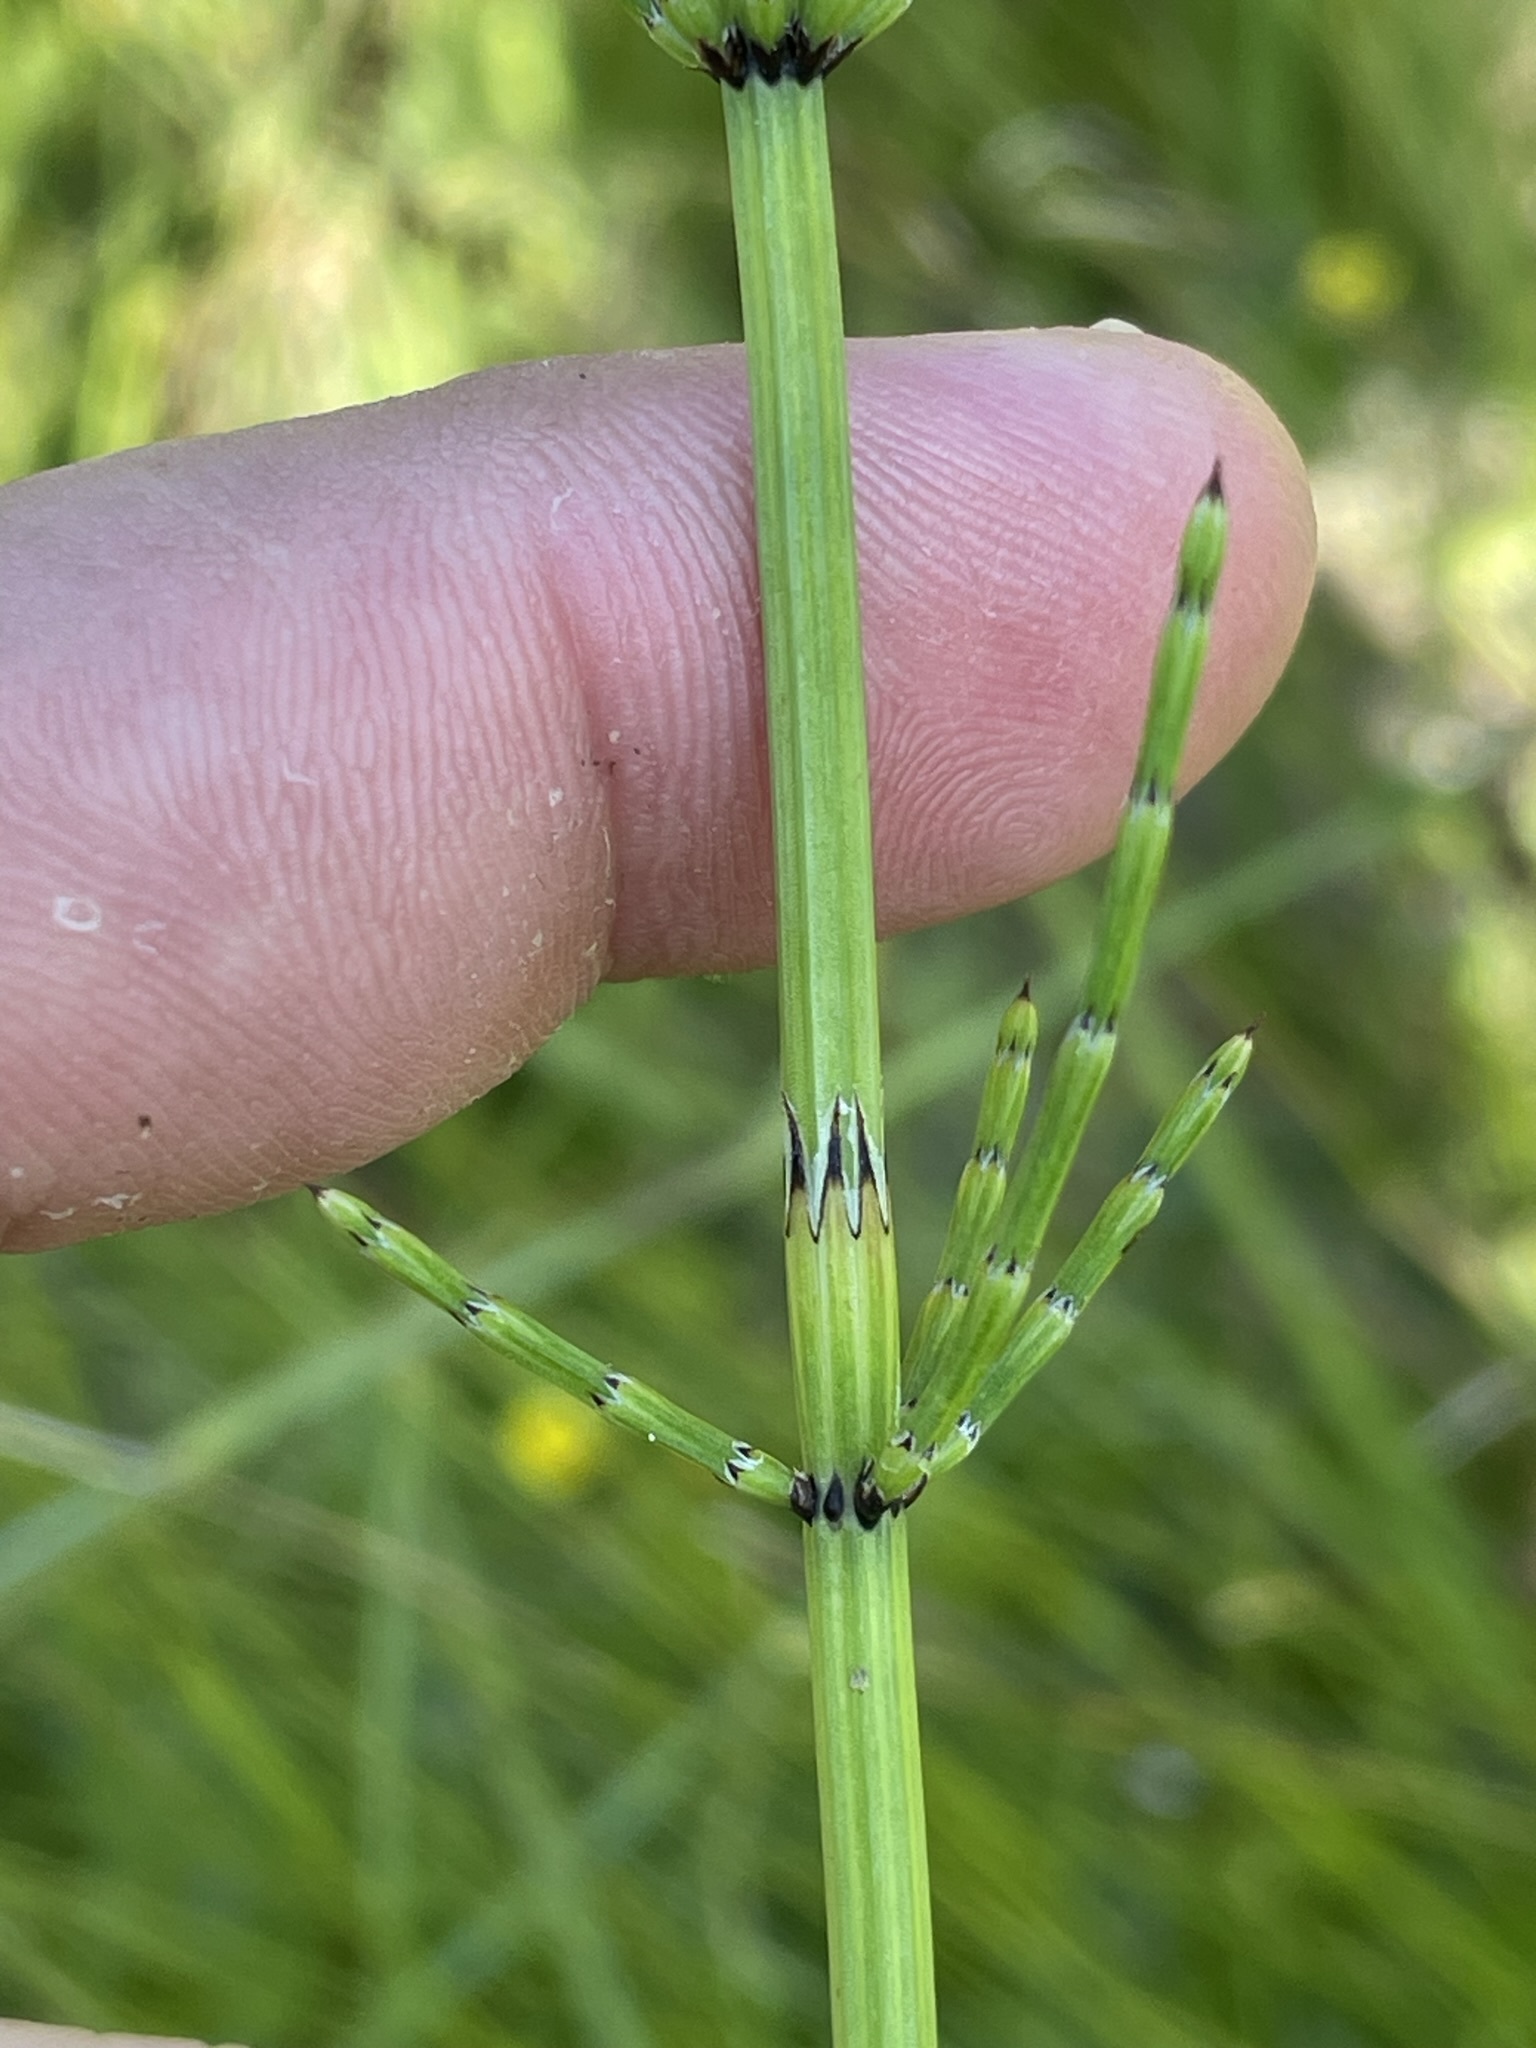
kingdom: Plantae
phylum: Tracheophyta
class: Polypodiopsida
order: Equisetales
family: Equisetaceae
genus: Equisetum
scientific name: Equisetum palustre
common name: Marsh horsetail
